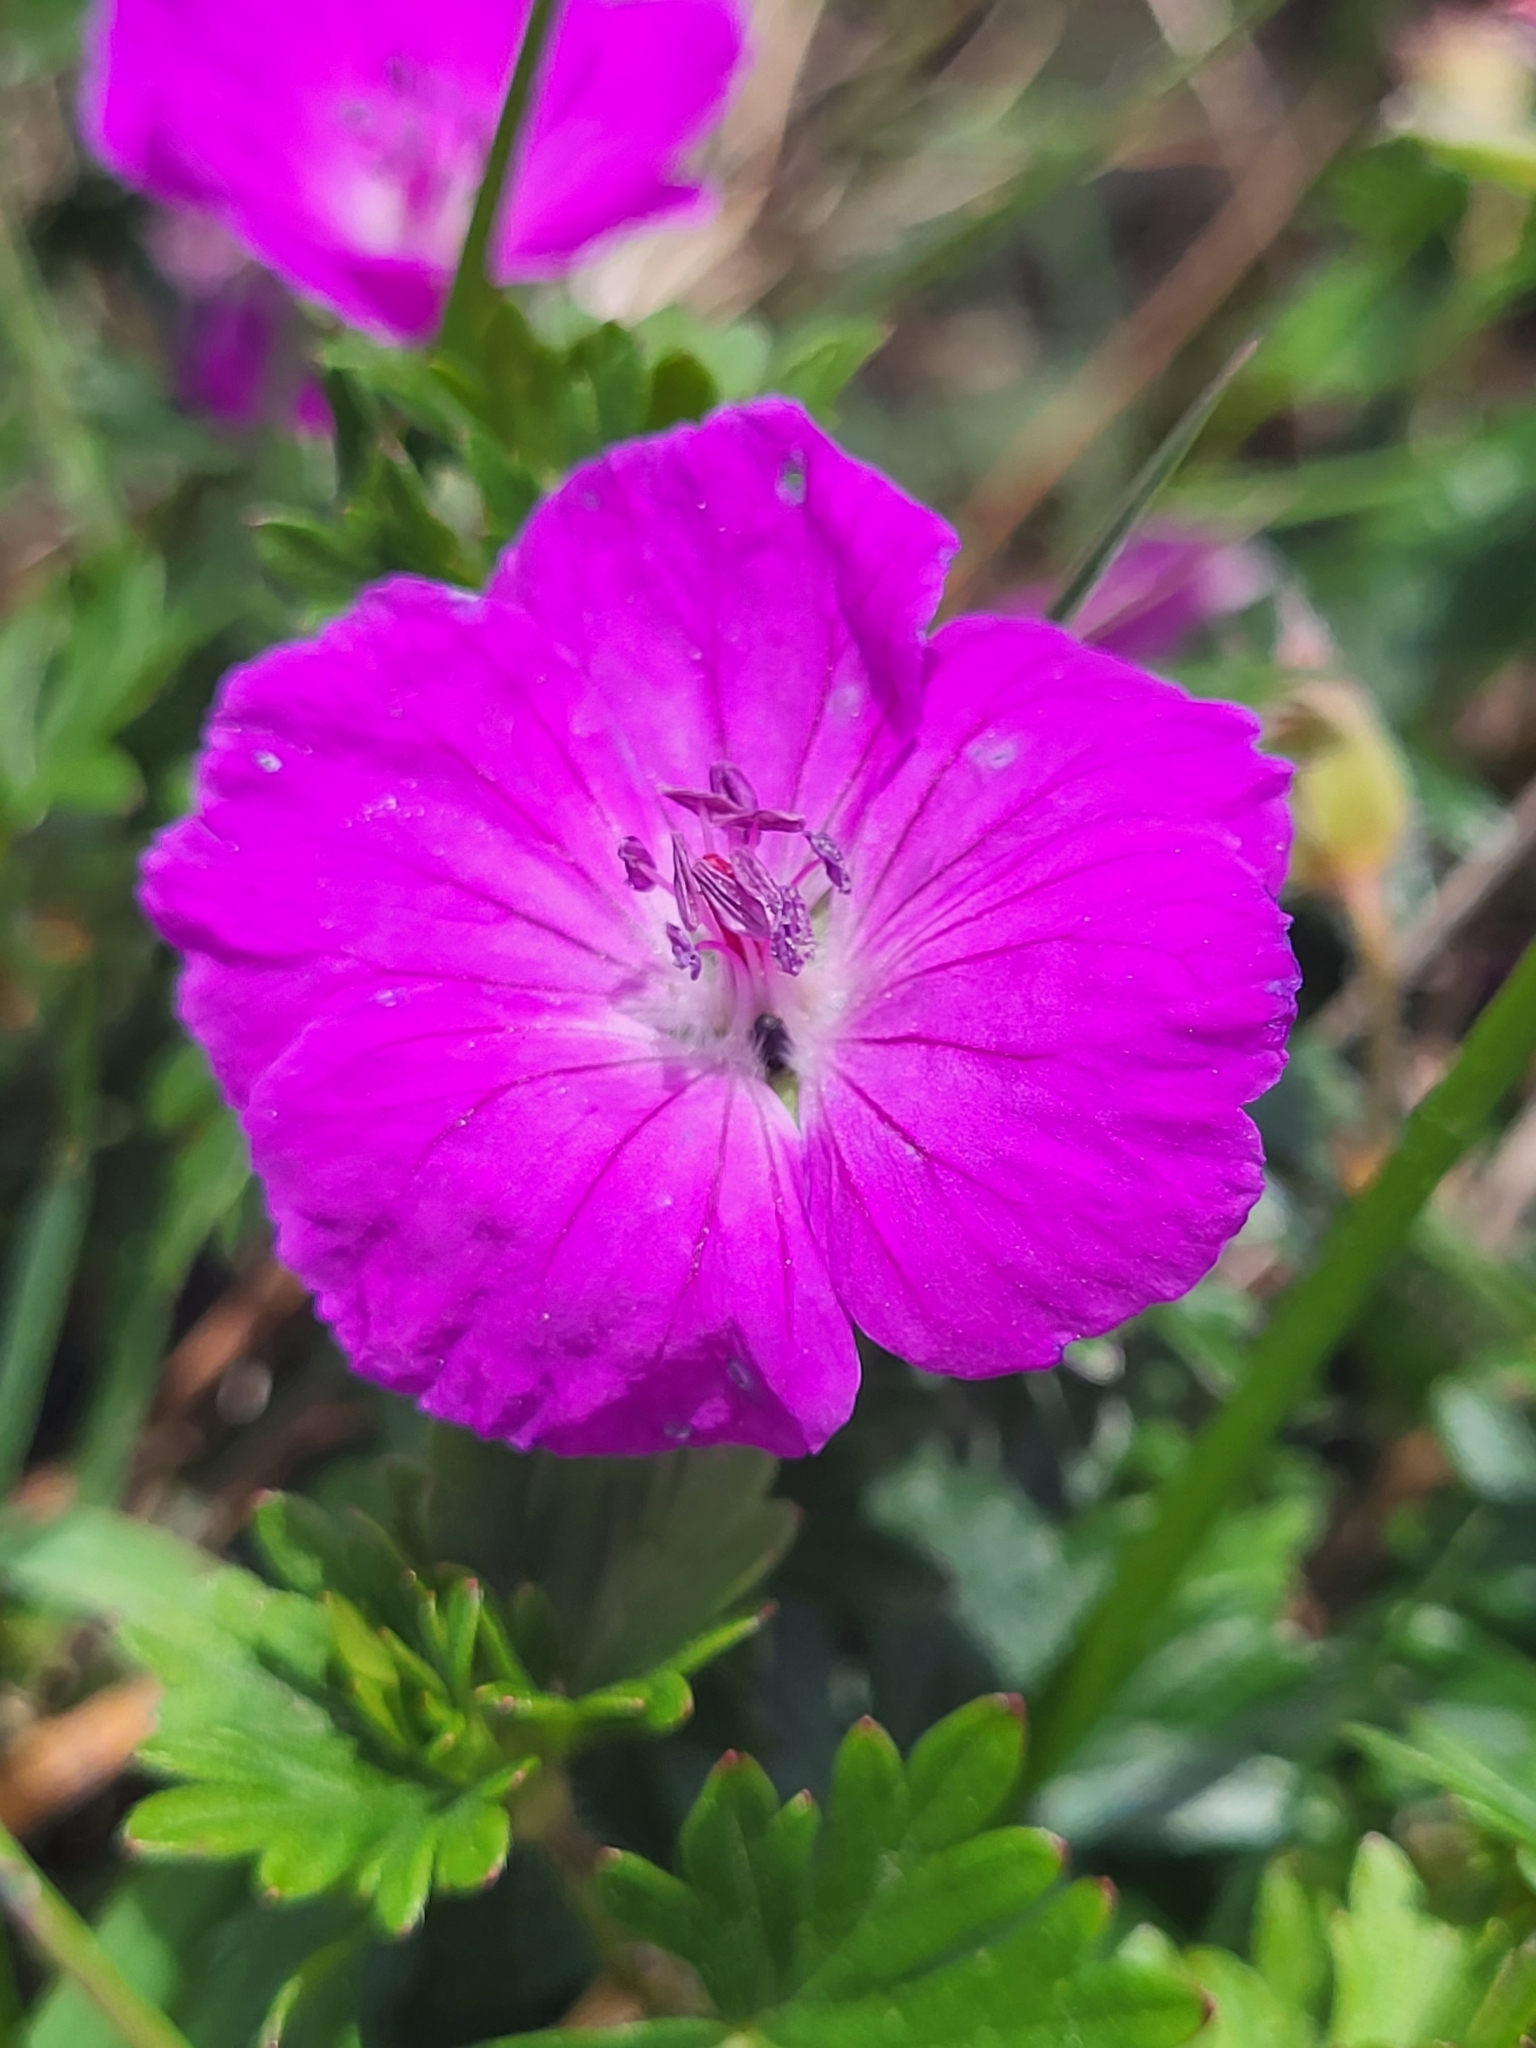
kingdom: Plantae
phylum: Tracheophyta
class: Magnoliopsida
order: Geraniales
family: Geraniaceae
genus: Geranium
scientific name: Geranium sanguineum
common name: Bloody crane's-bill
